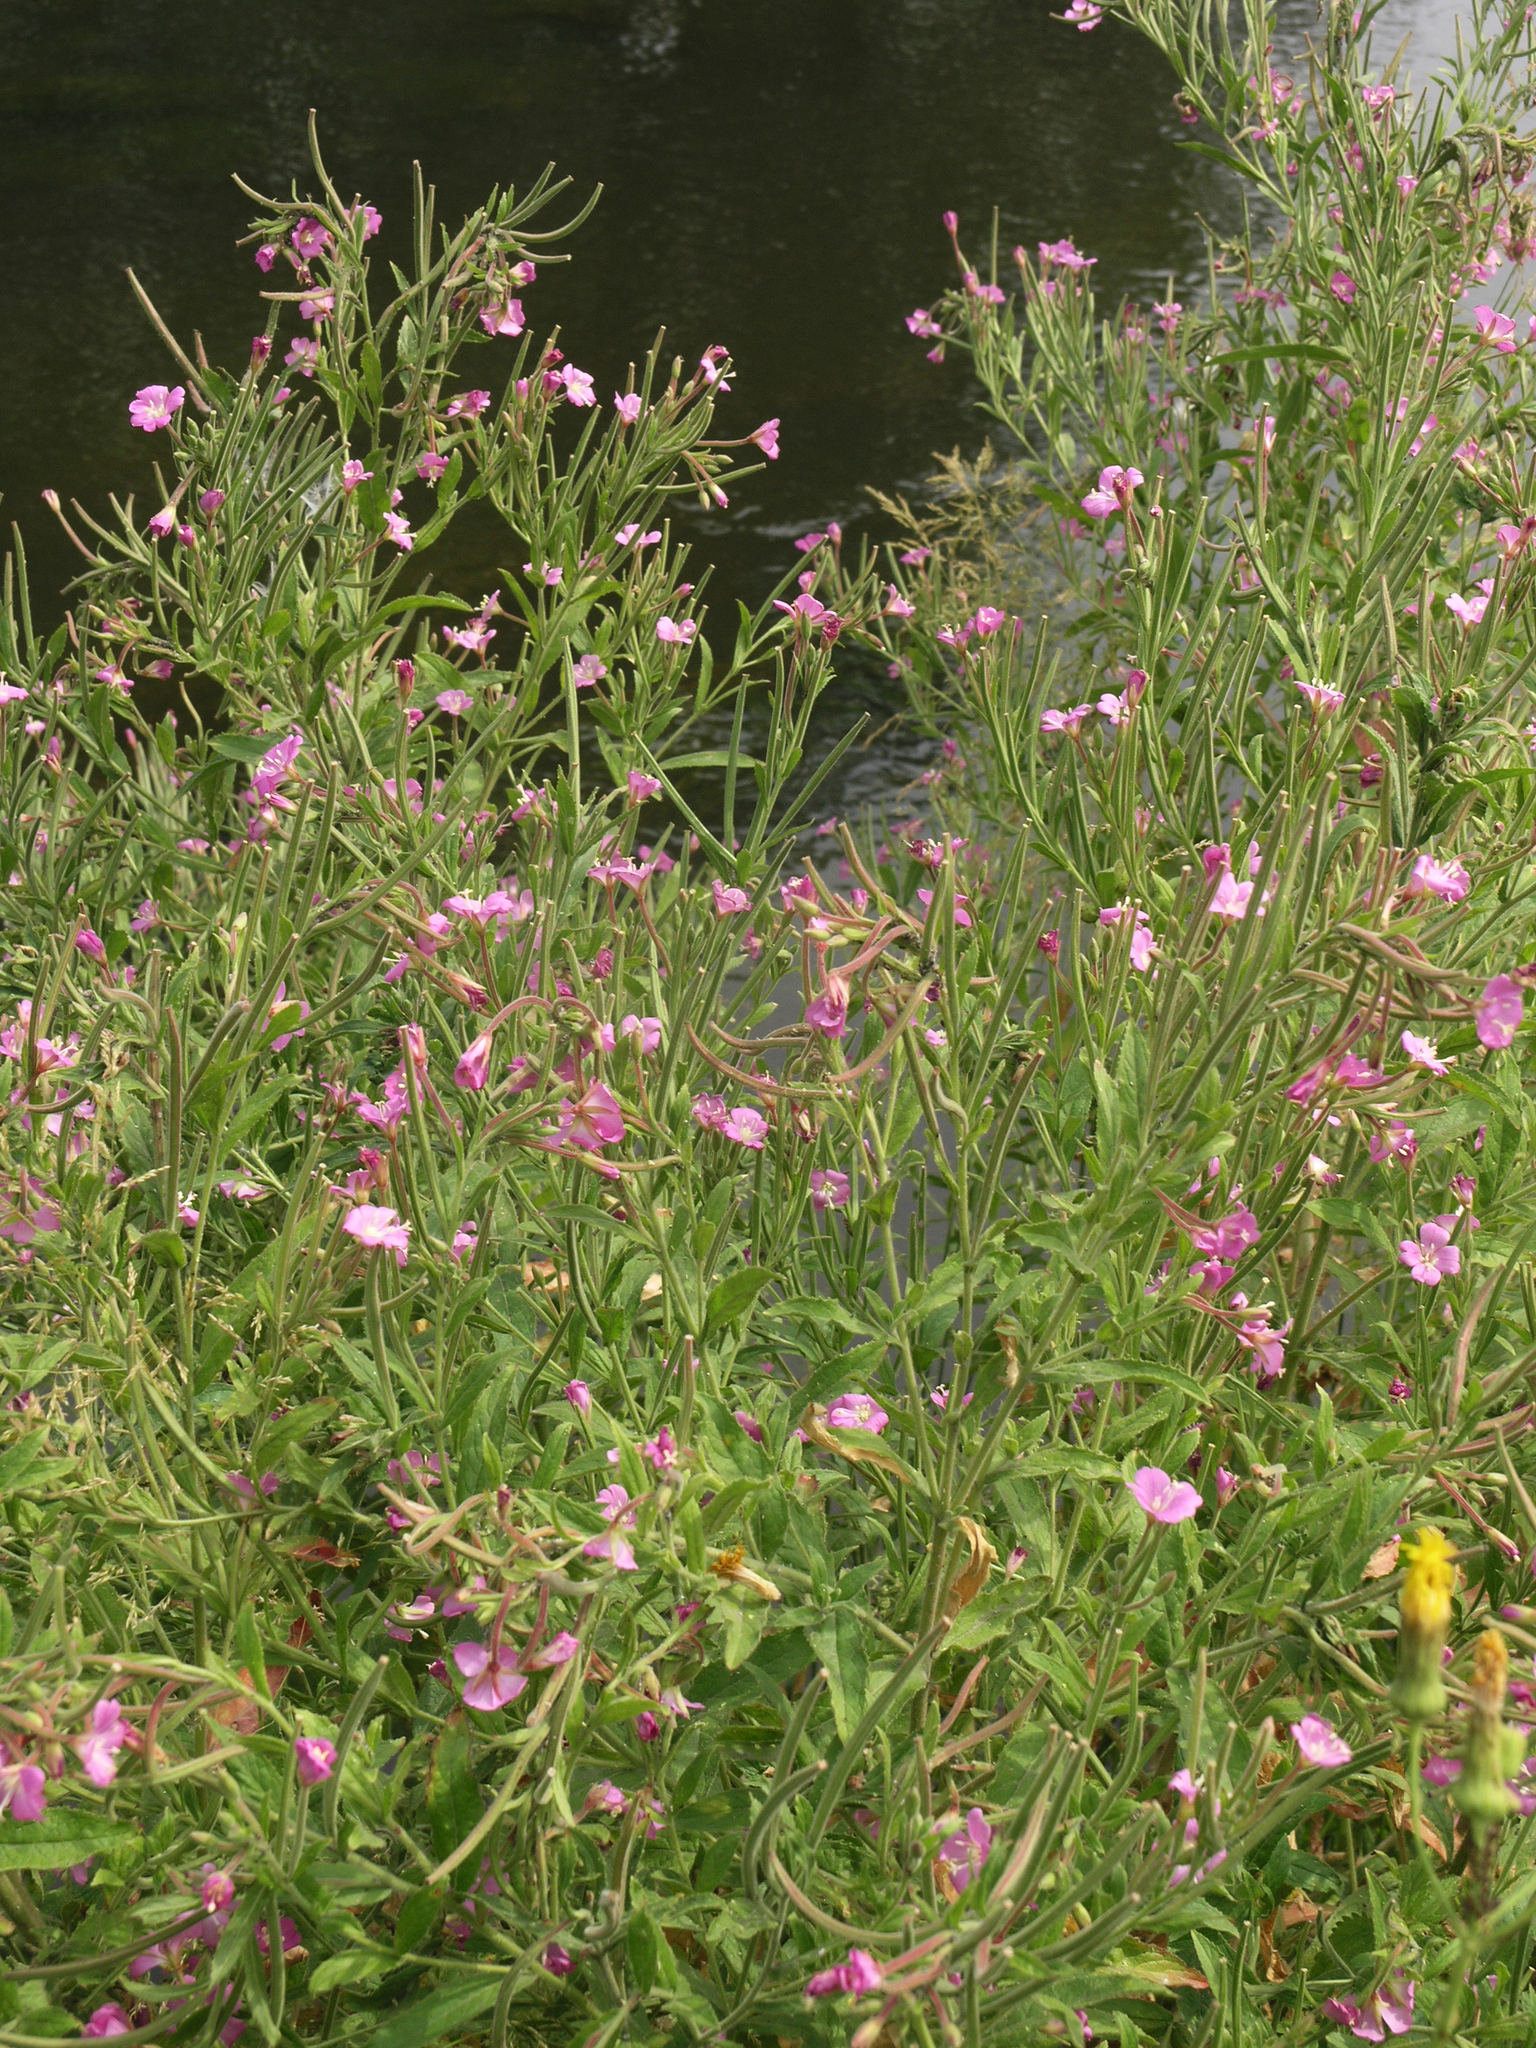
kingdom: Plantae
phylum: Tracheophyta
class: Magnoliopsida
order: Myrtales
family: Onagraceae
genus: Epilobium
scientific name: Epilobium hirsutum
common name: Great willowherb
